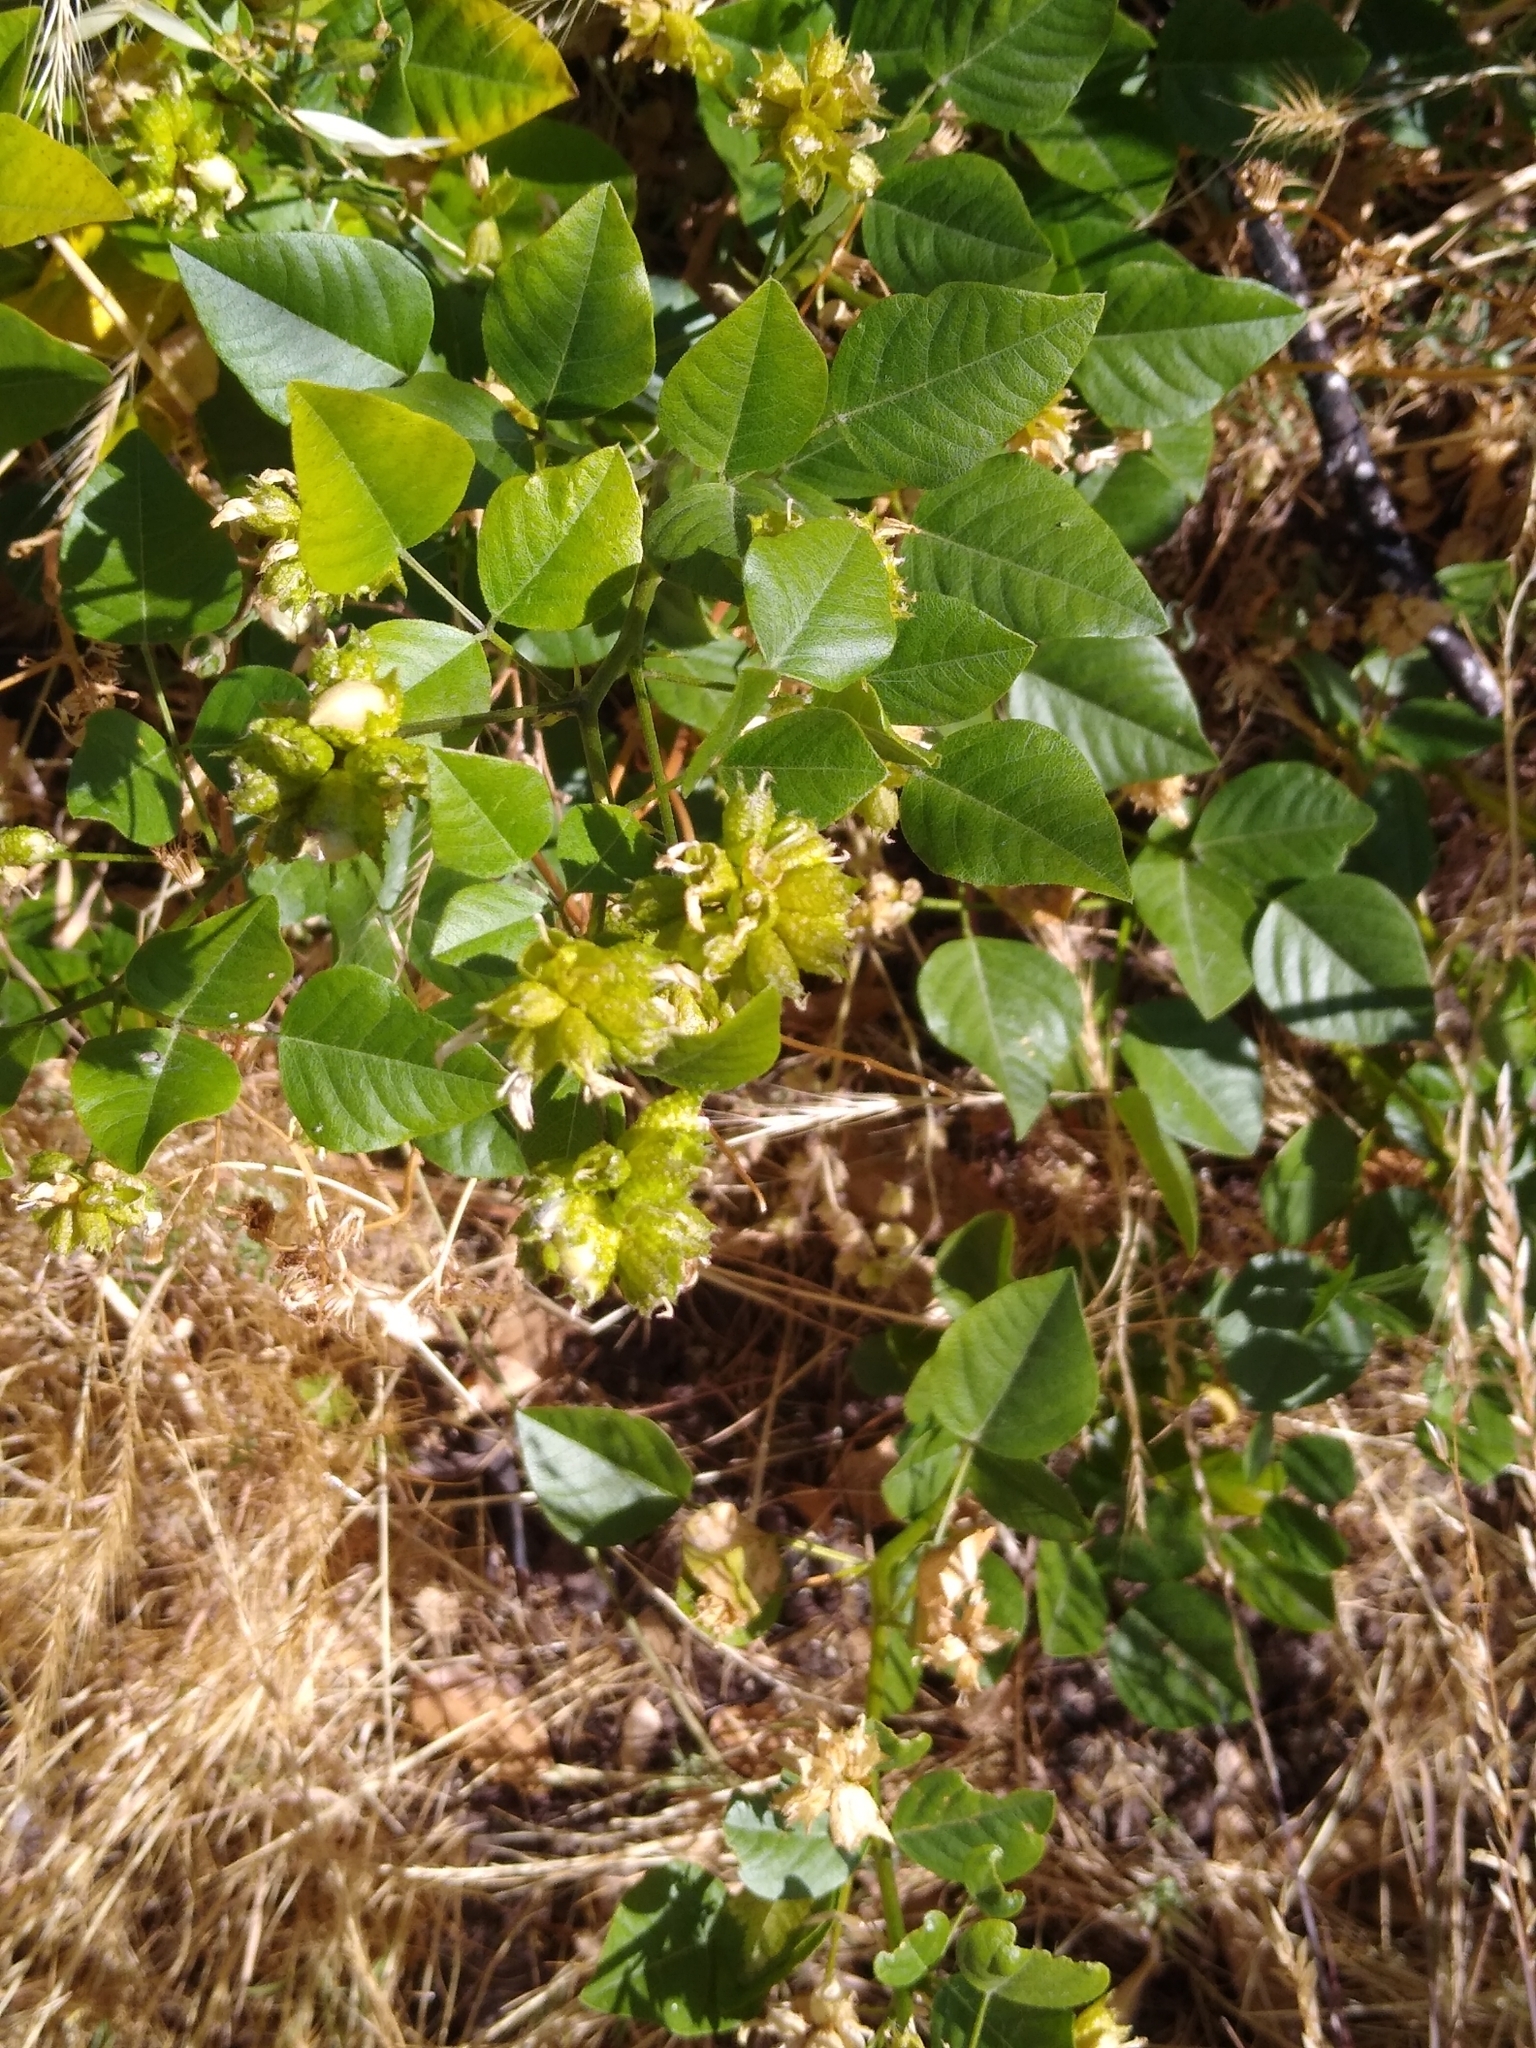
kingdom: Plantae
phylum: Tracheophyta
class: Magnoliopsida
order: Fabales
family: Fabaceae
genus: Rupertia
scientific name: Rupertia physodes
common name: California-tea
